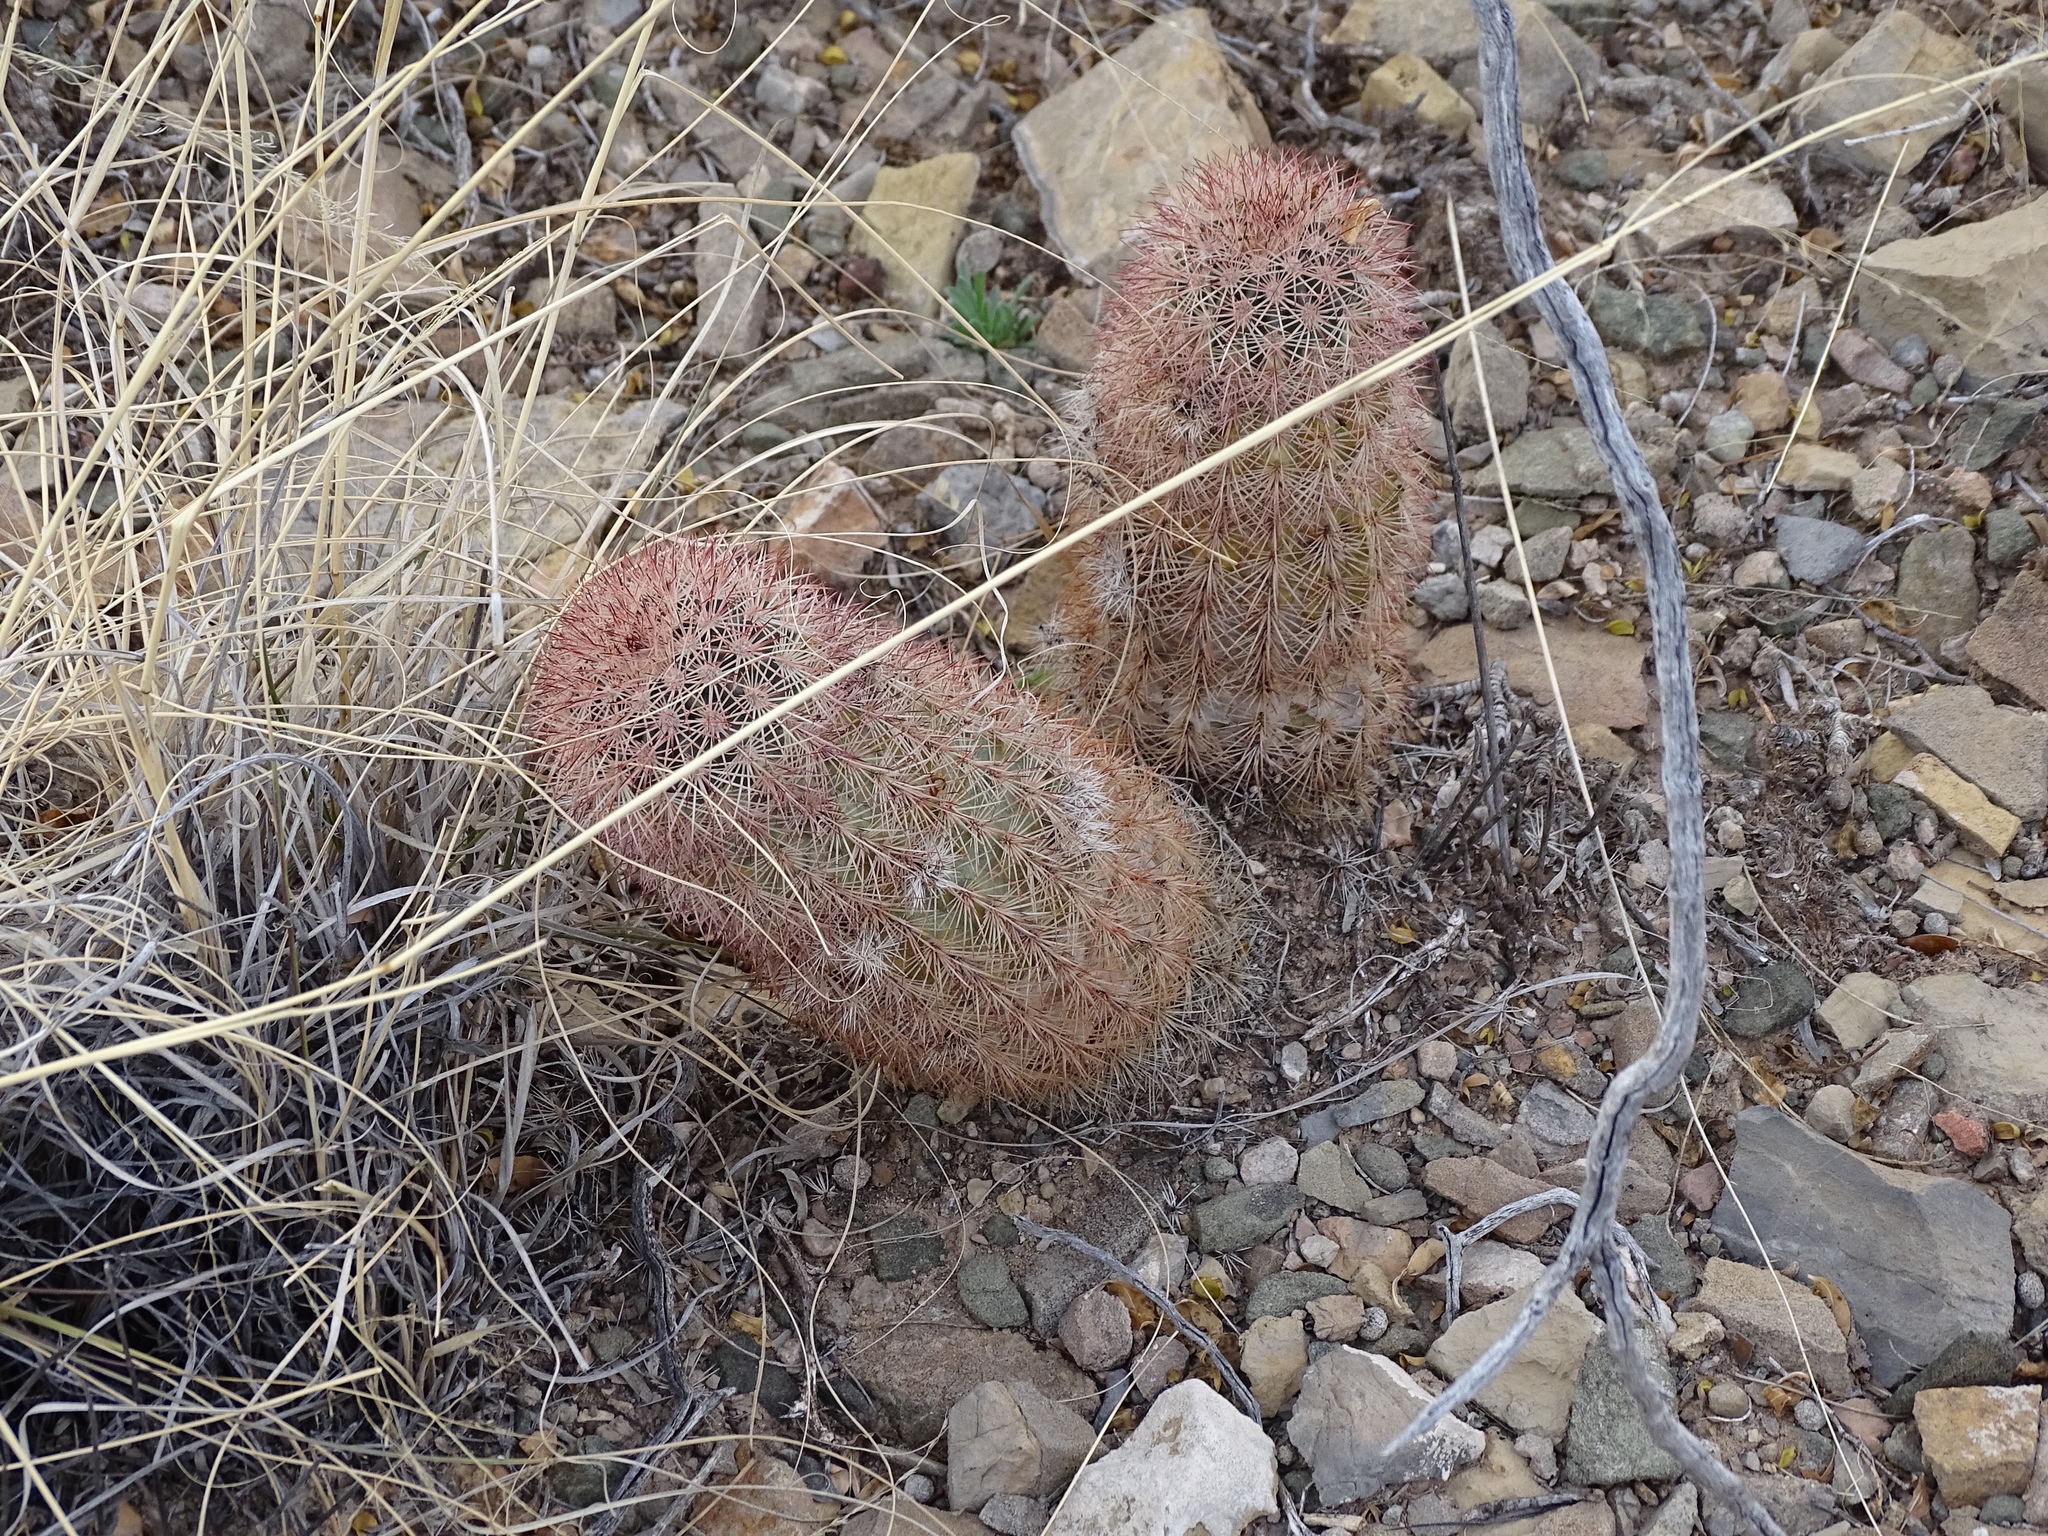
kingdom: Plantae
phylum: Tracheophyta
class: Magnoliopsida
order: Caryophyllales
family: Cactaceae
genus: Echinocereus
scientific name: Echinocereus dasyacanthus
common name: Spiny hedgehog cactus
